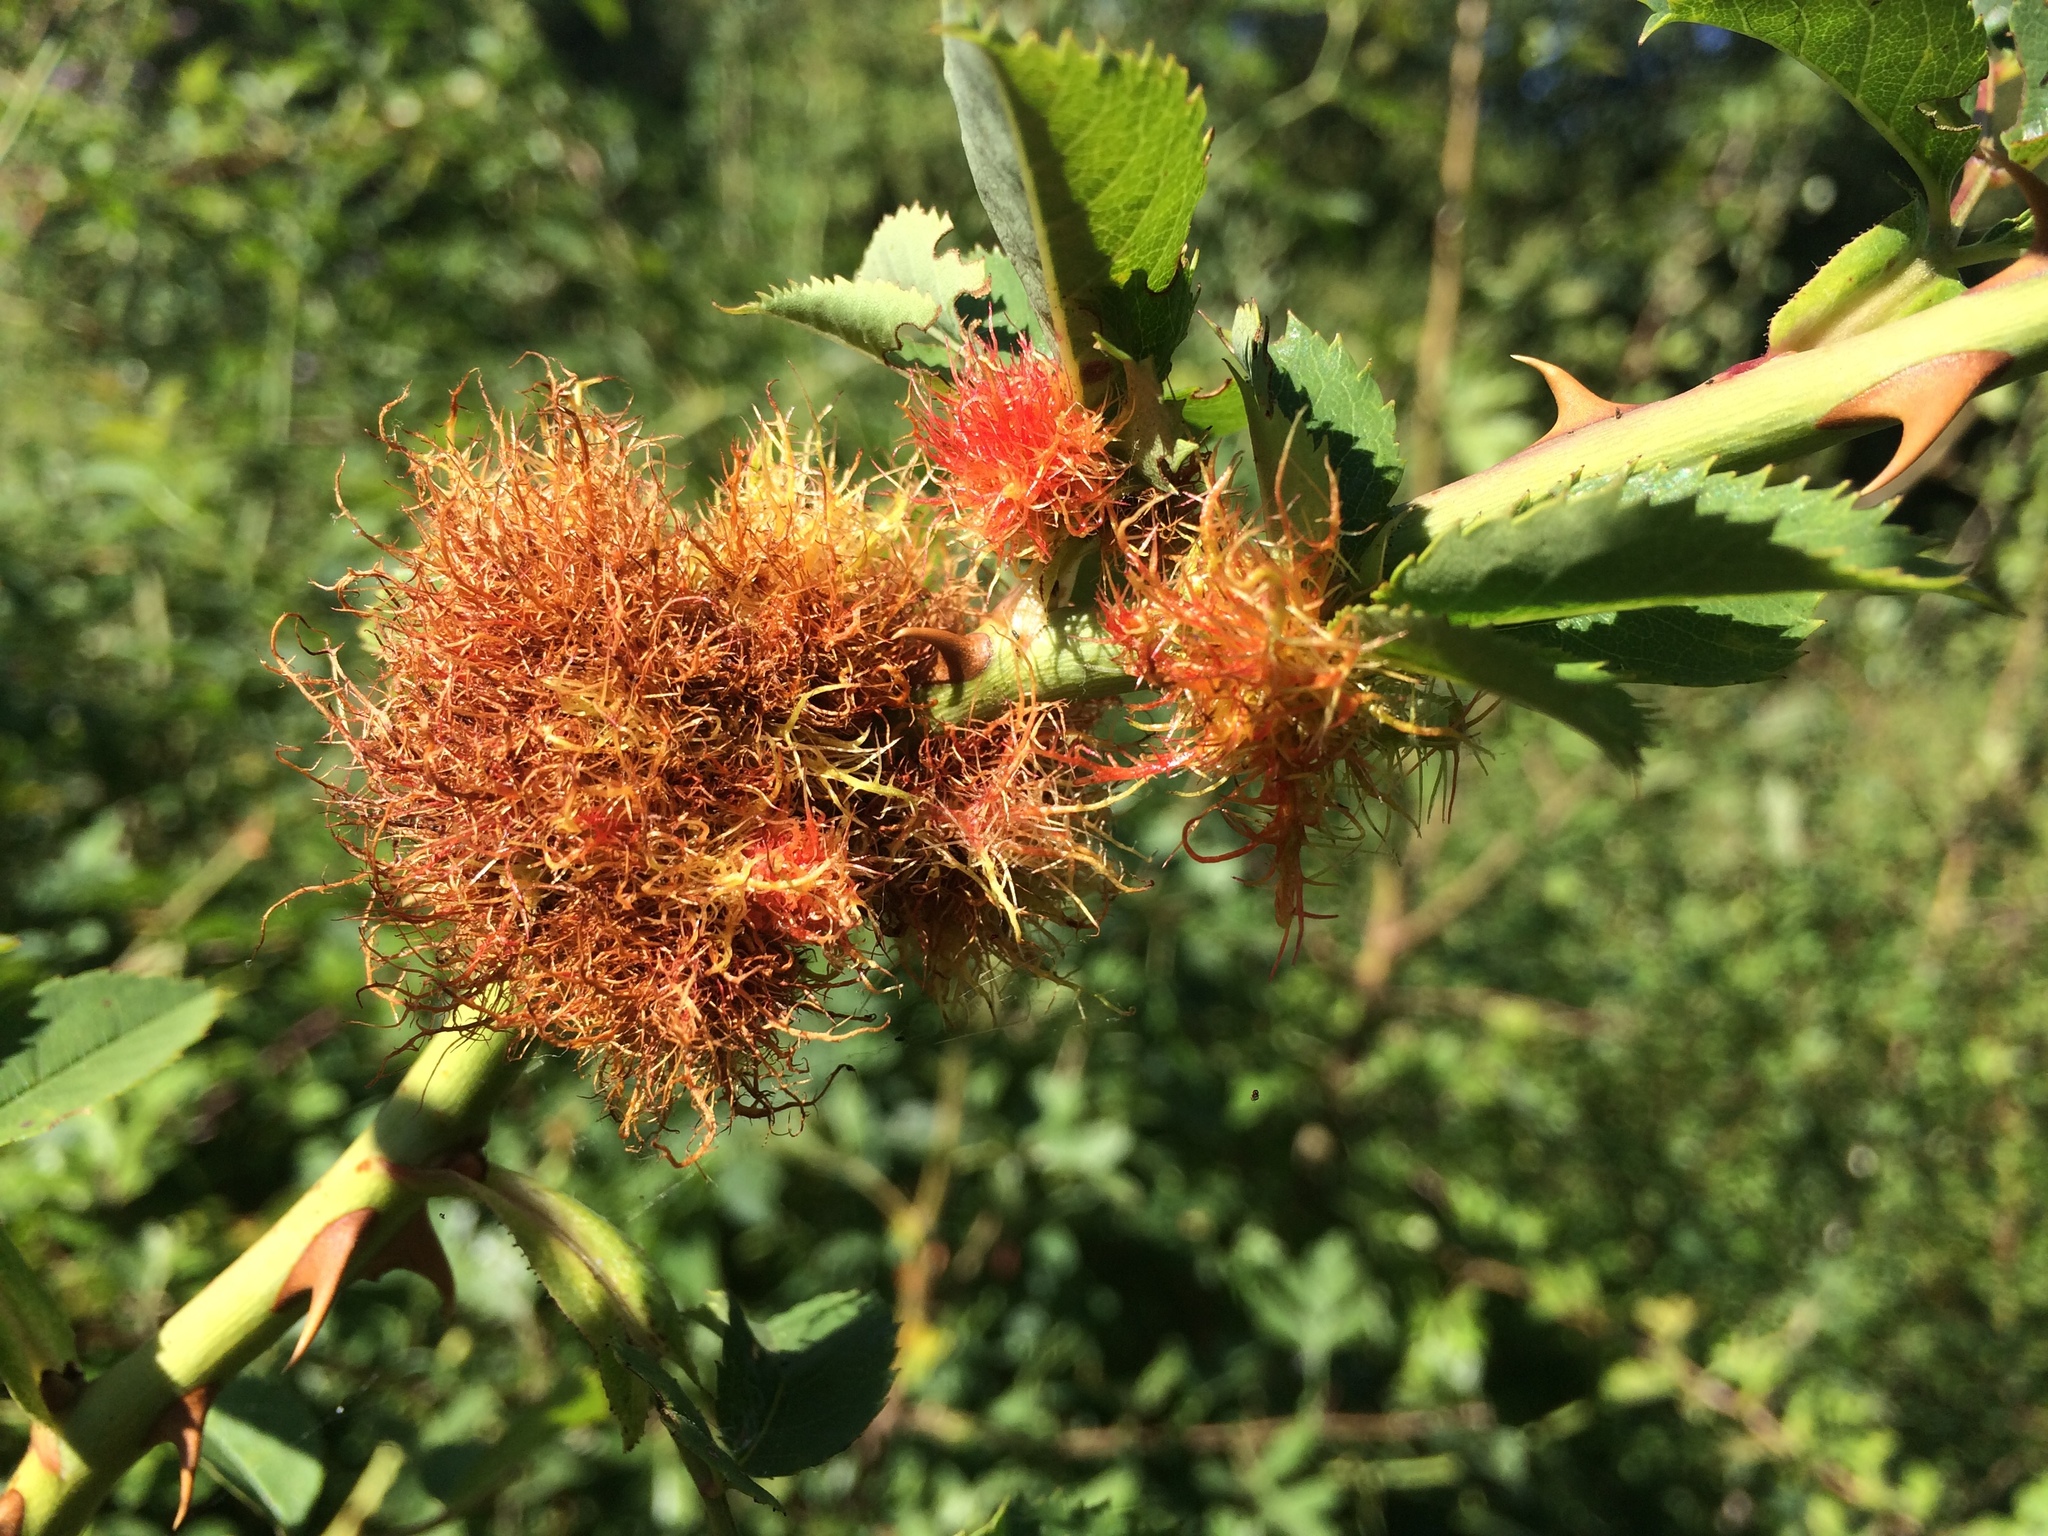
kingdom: Animalia
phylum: Arthropoda
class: Insecta
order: Hymenoptera
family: Cynipidae
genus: Diplolepis
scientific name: Diplolepis rosae
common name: Bedeguar gall
